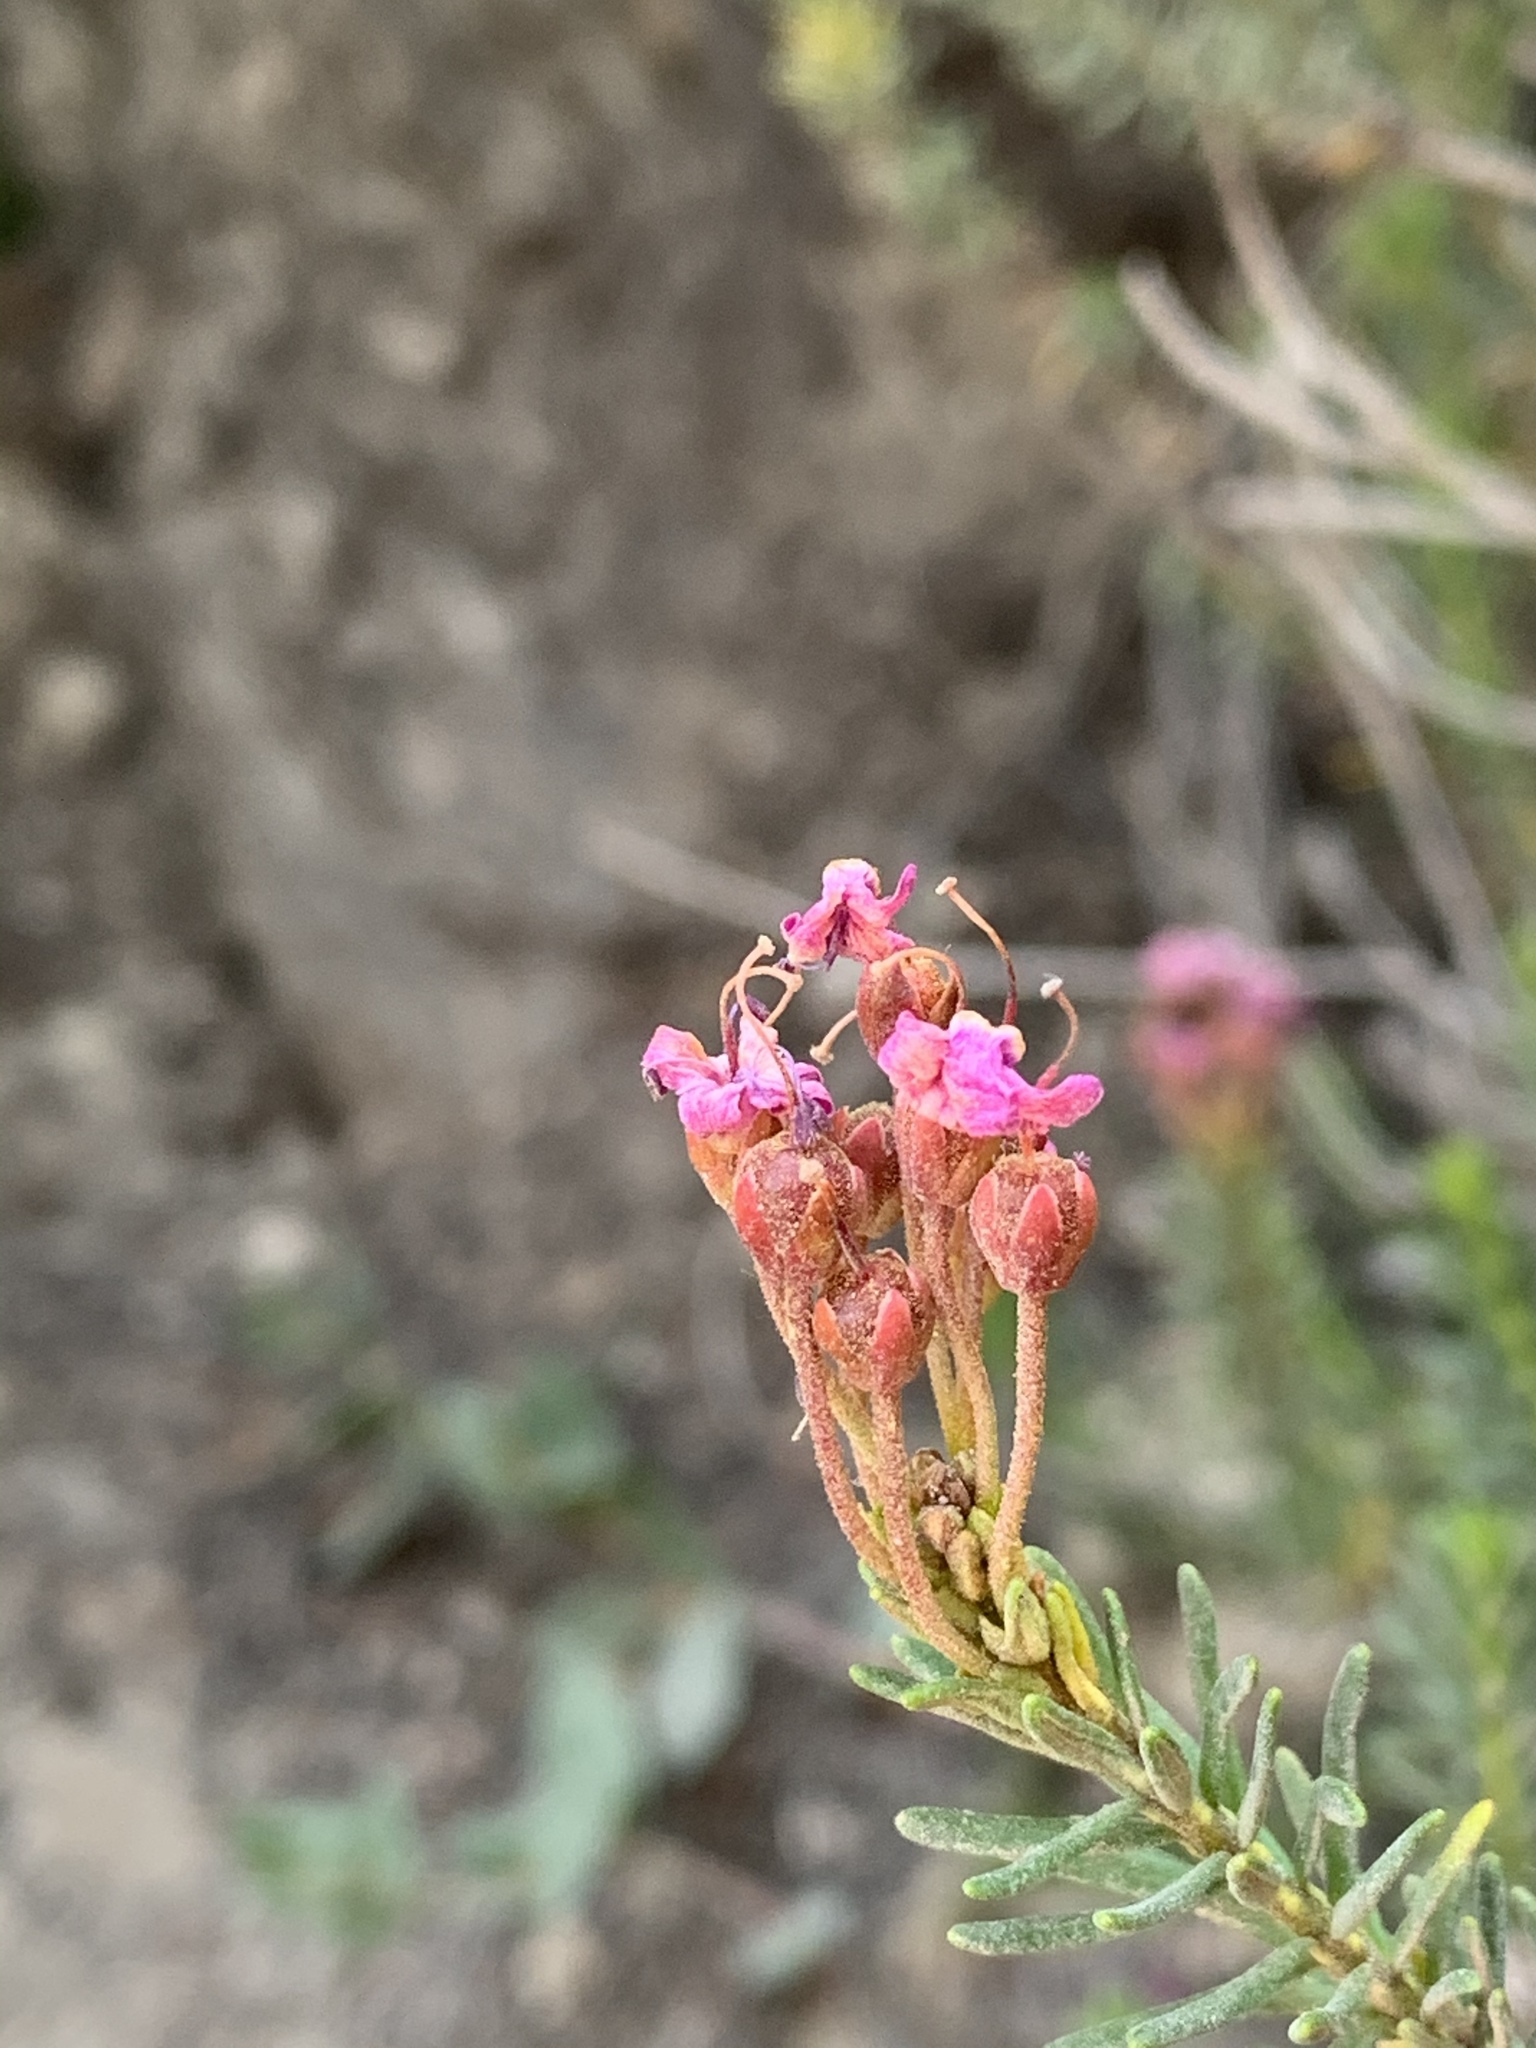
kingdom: Plantae
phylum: Tracheophyta
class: Magnoliopsida
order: Ericales
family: Ericaceae
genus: Phyllodoce
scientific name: Phyllodoce breweri
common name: Brewer's mountain-heather
